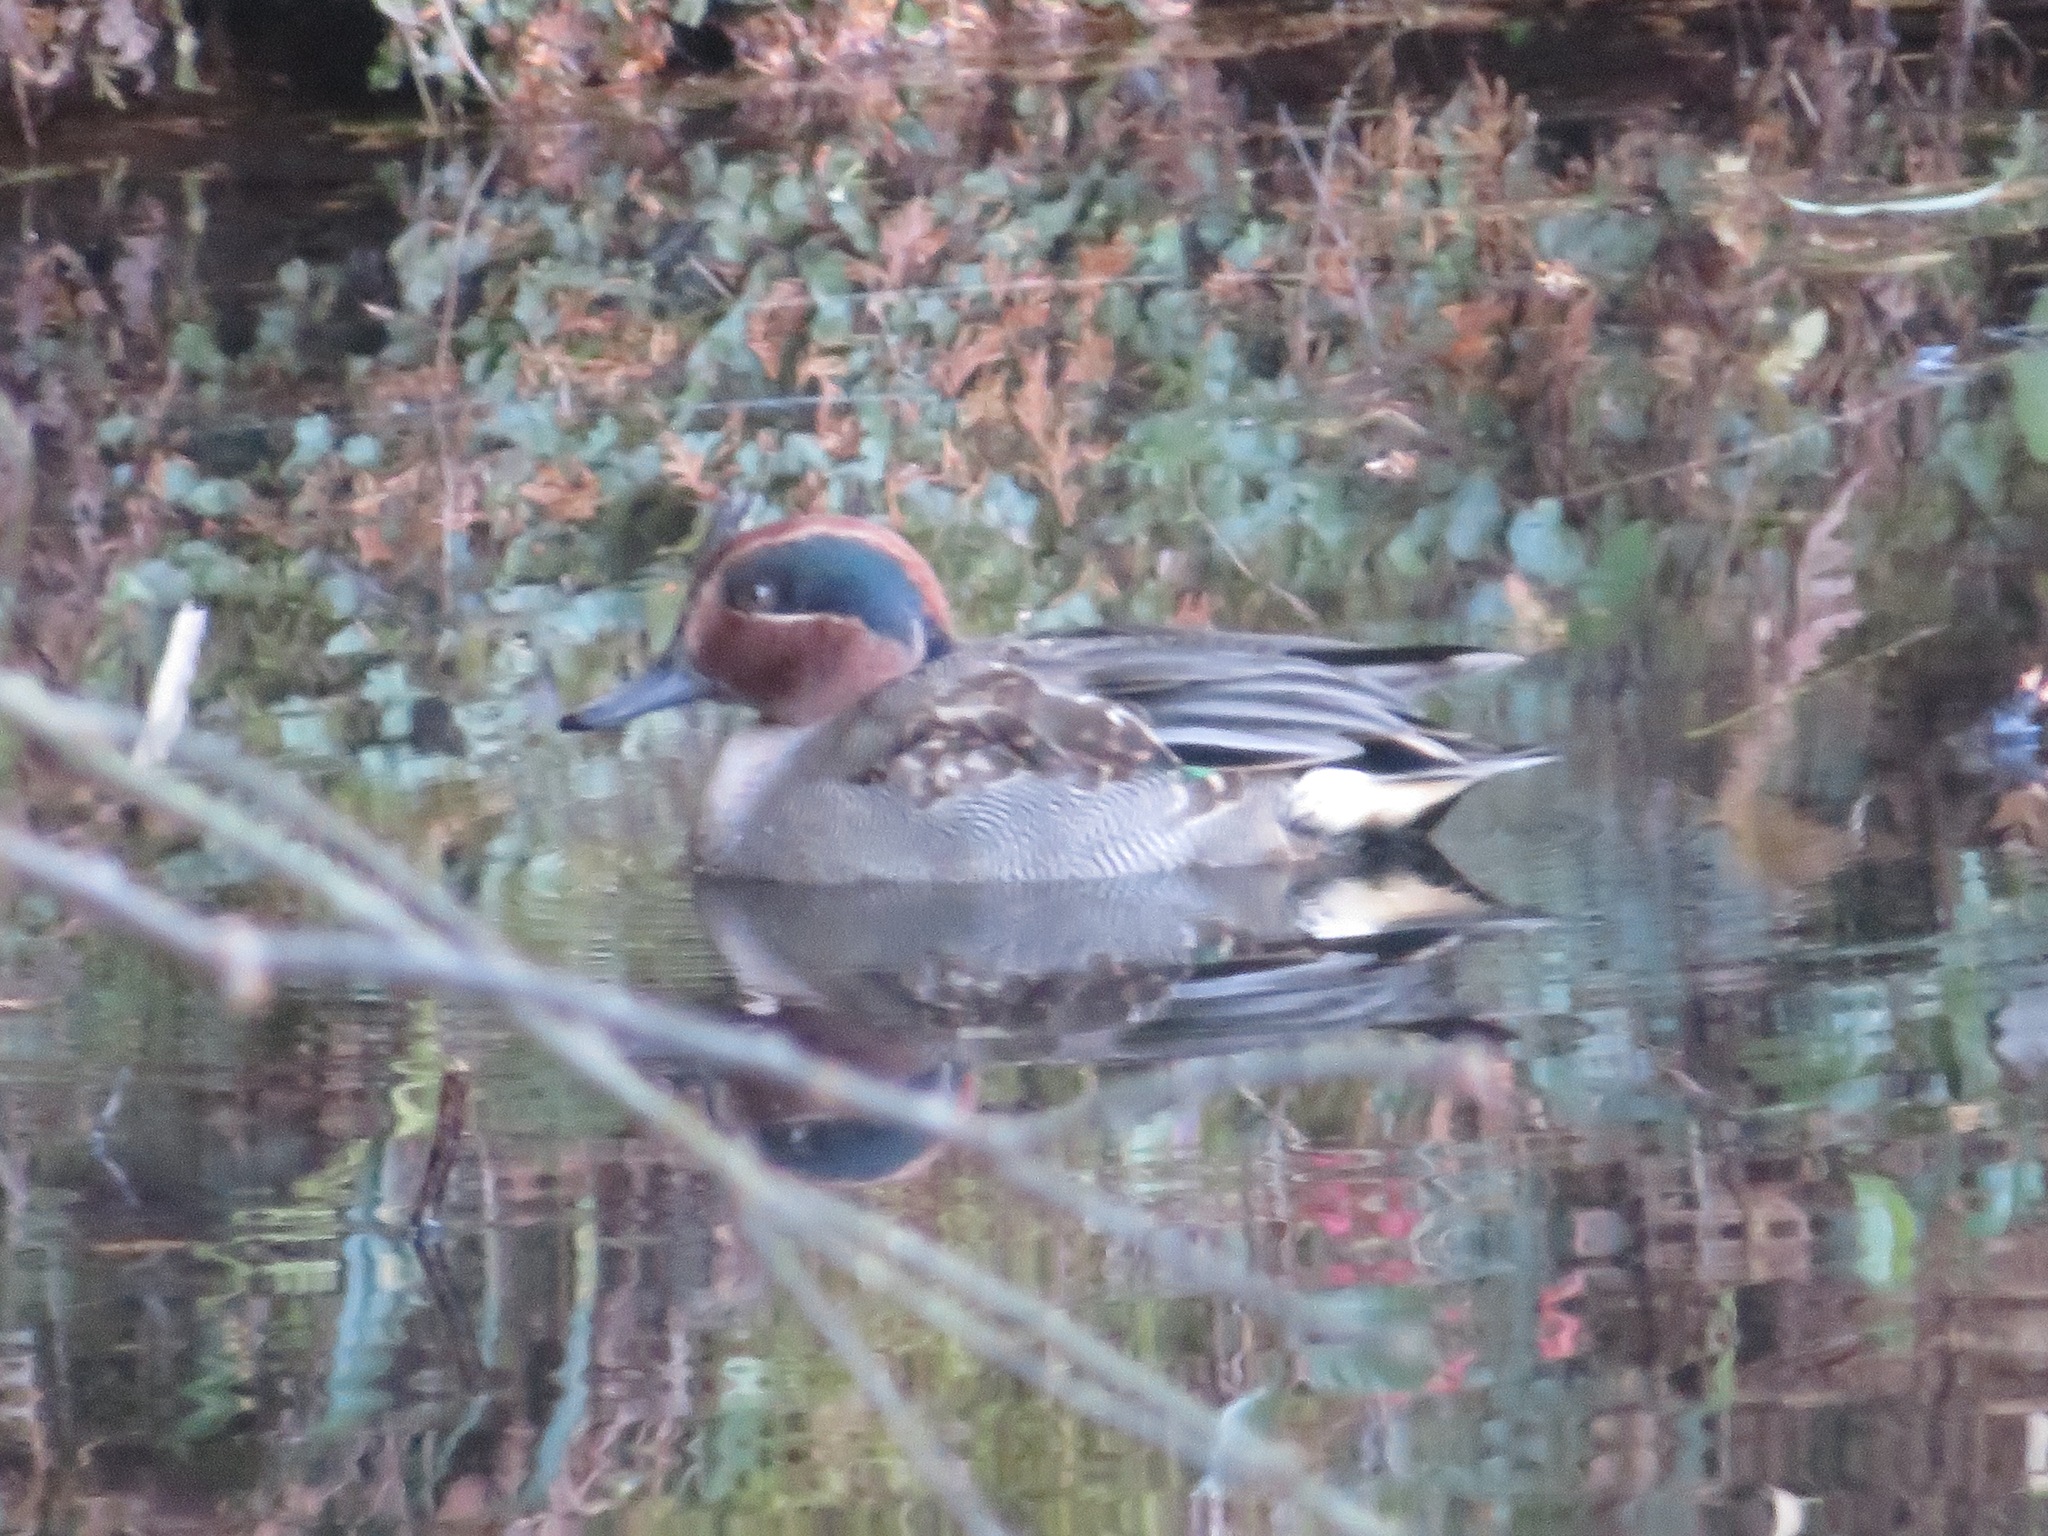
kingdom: Animalia
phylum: Chordata
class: Aves
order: Anseriformes
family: Anatidae
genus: Anas
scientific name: Anas crecca
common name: Eurasian teal
